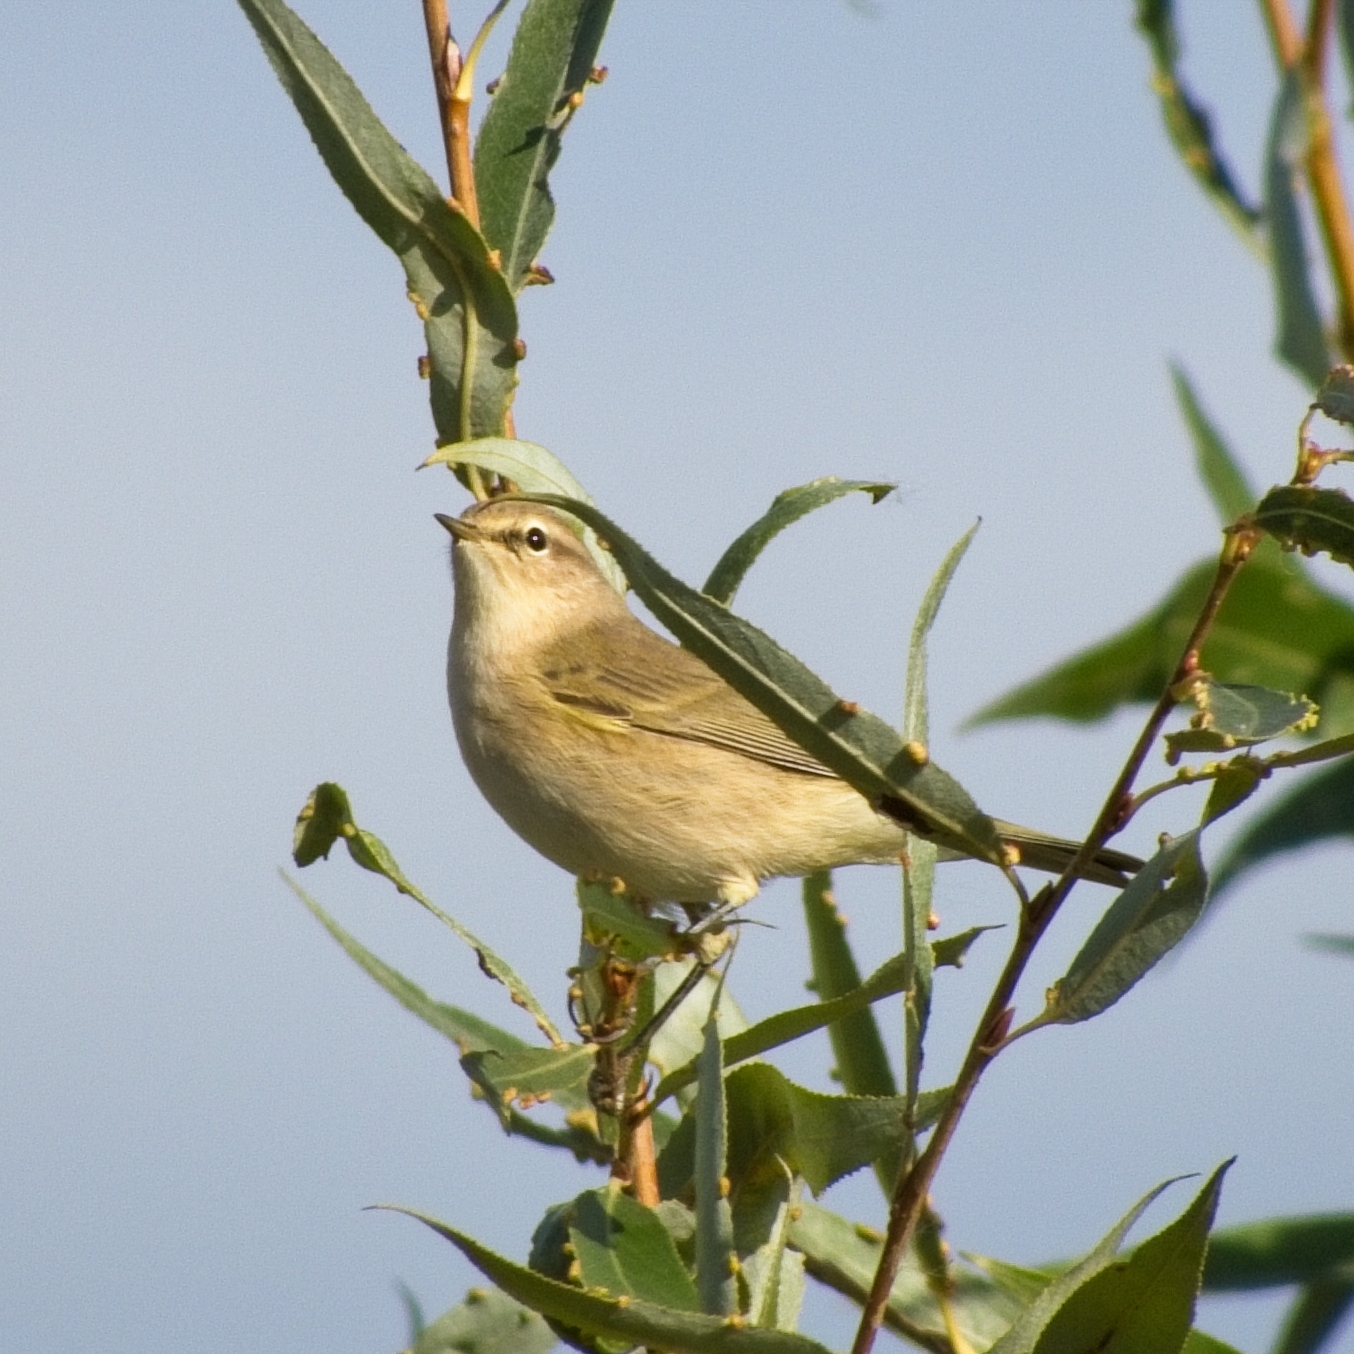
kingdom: Animalia
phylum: Chordata
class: Aves
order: Passeriformes
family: Phylloscopidae
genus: Phylloscopus
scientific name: Phylloscopus collybita
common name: Common chiffchaff
